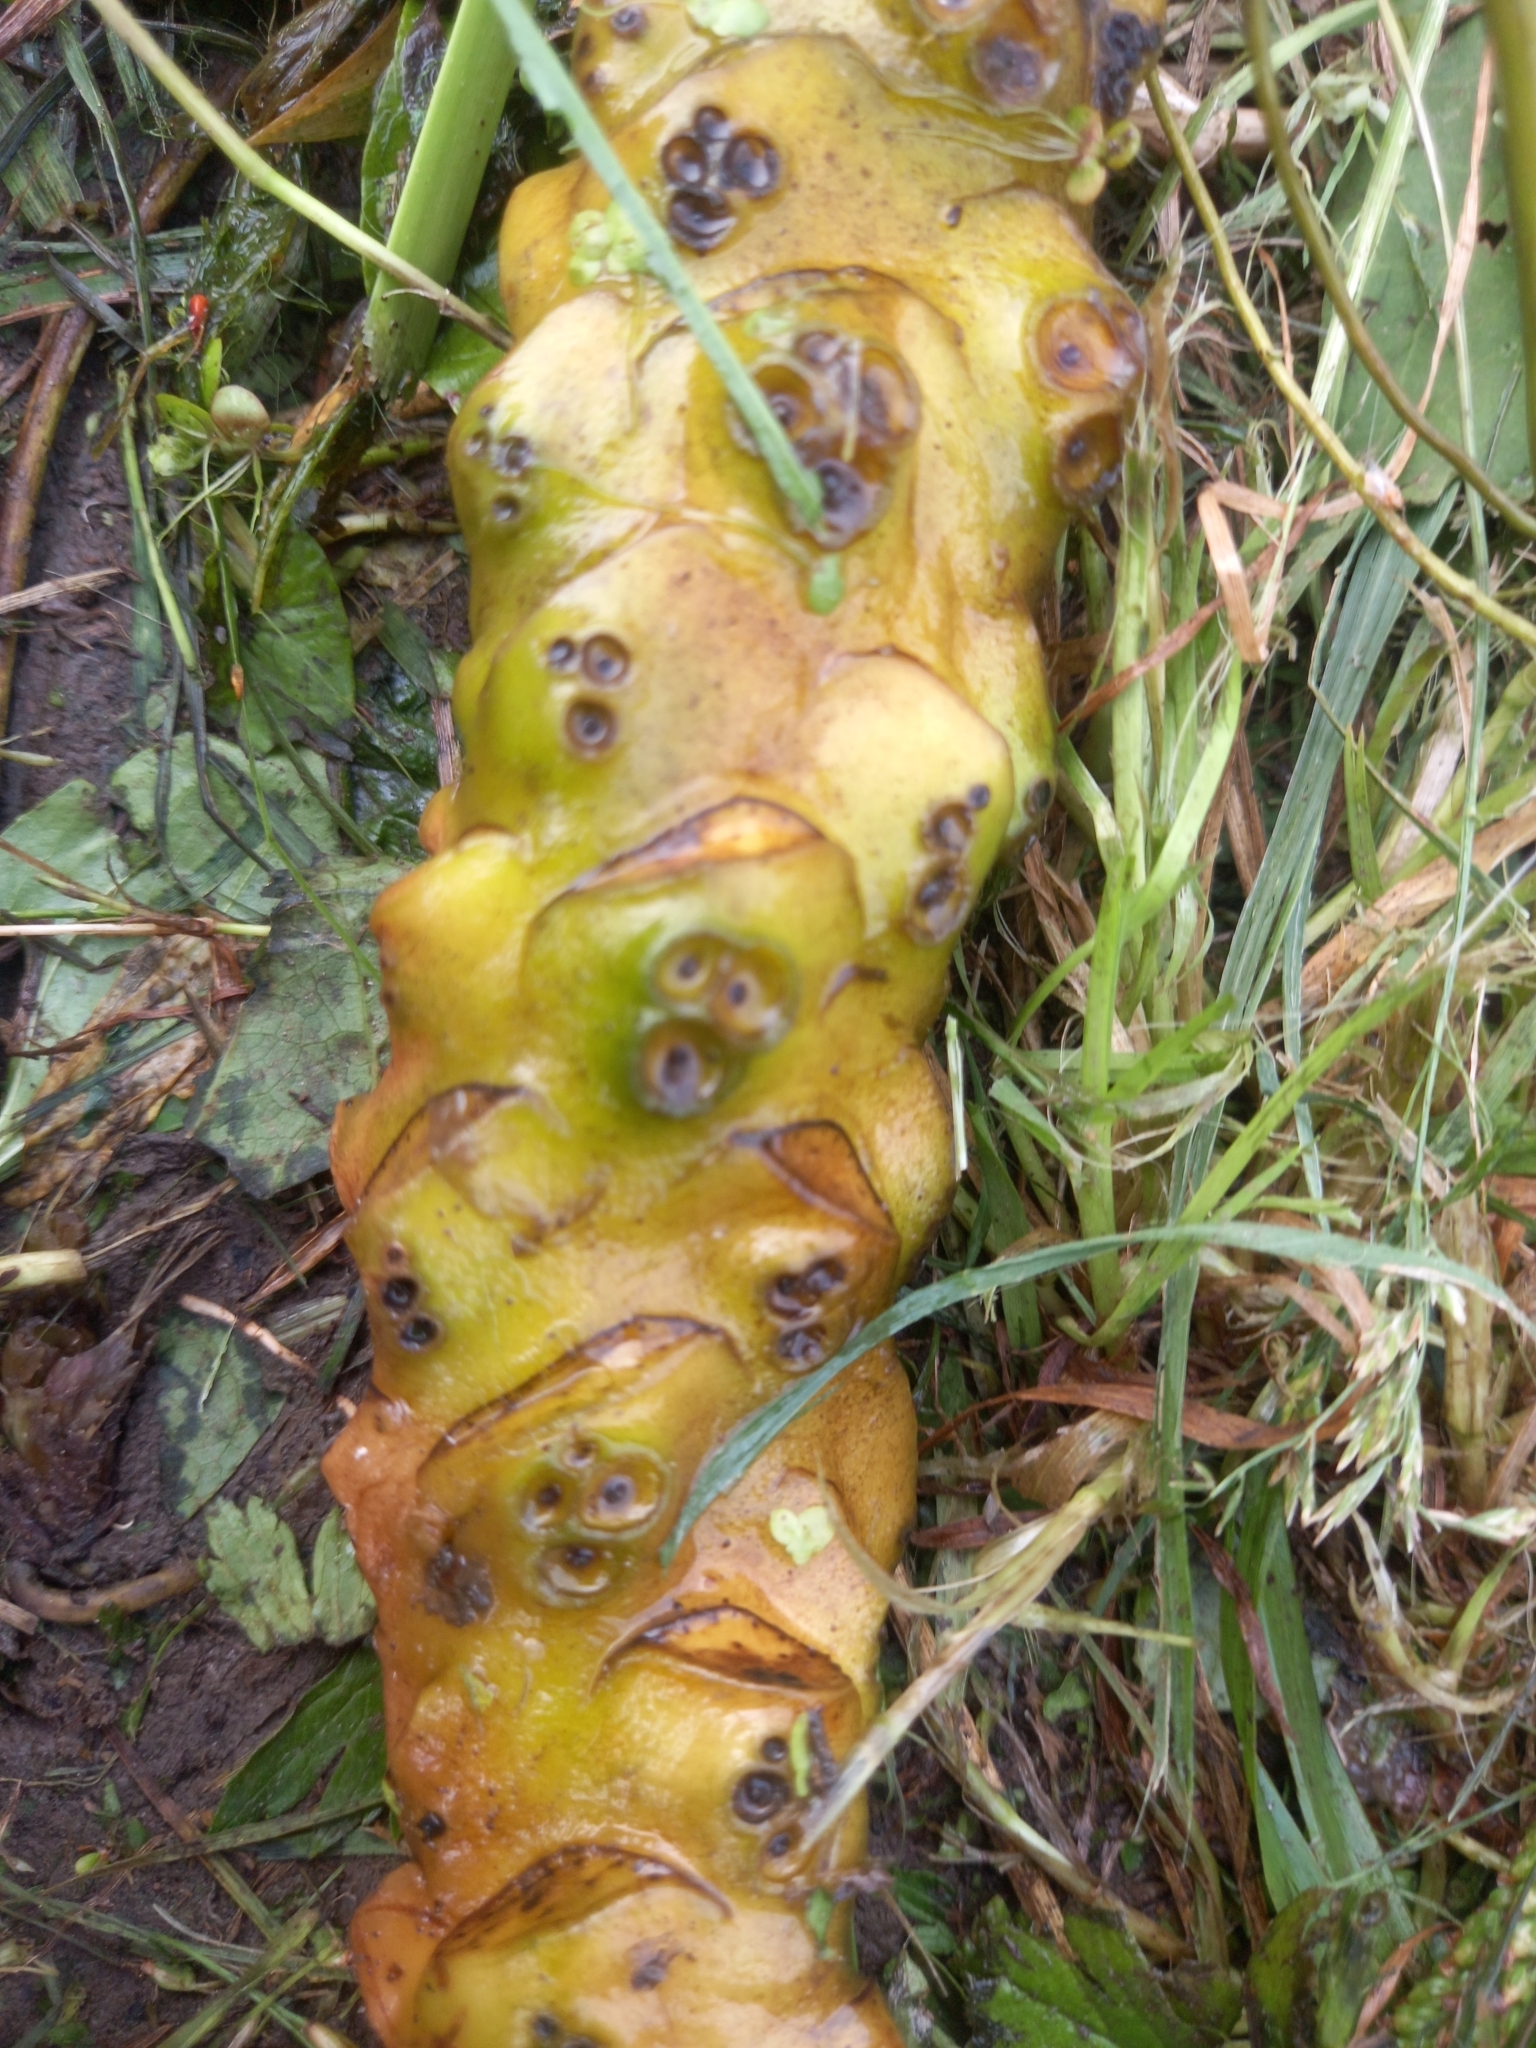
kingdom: Plantae
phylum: Tracheophyta
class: Magnoliopsida
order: Nymphaeales
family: Nymphaeaceae
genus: Nuphar
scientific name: Nuphar lutea
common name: Yellow water-lily
